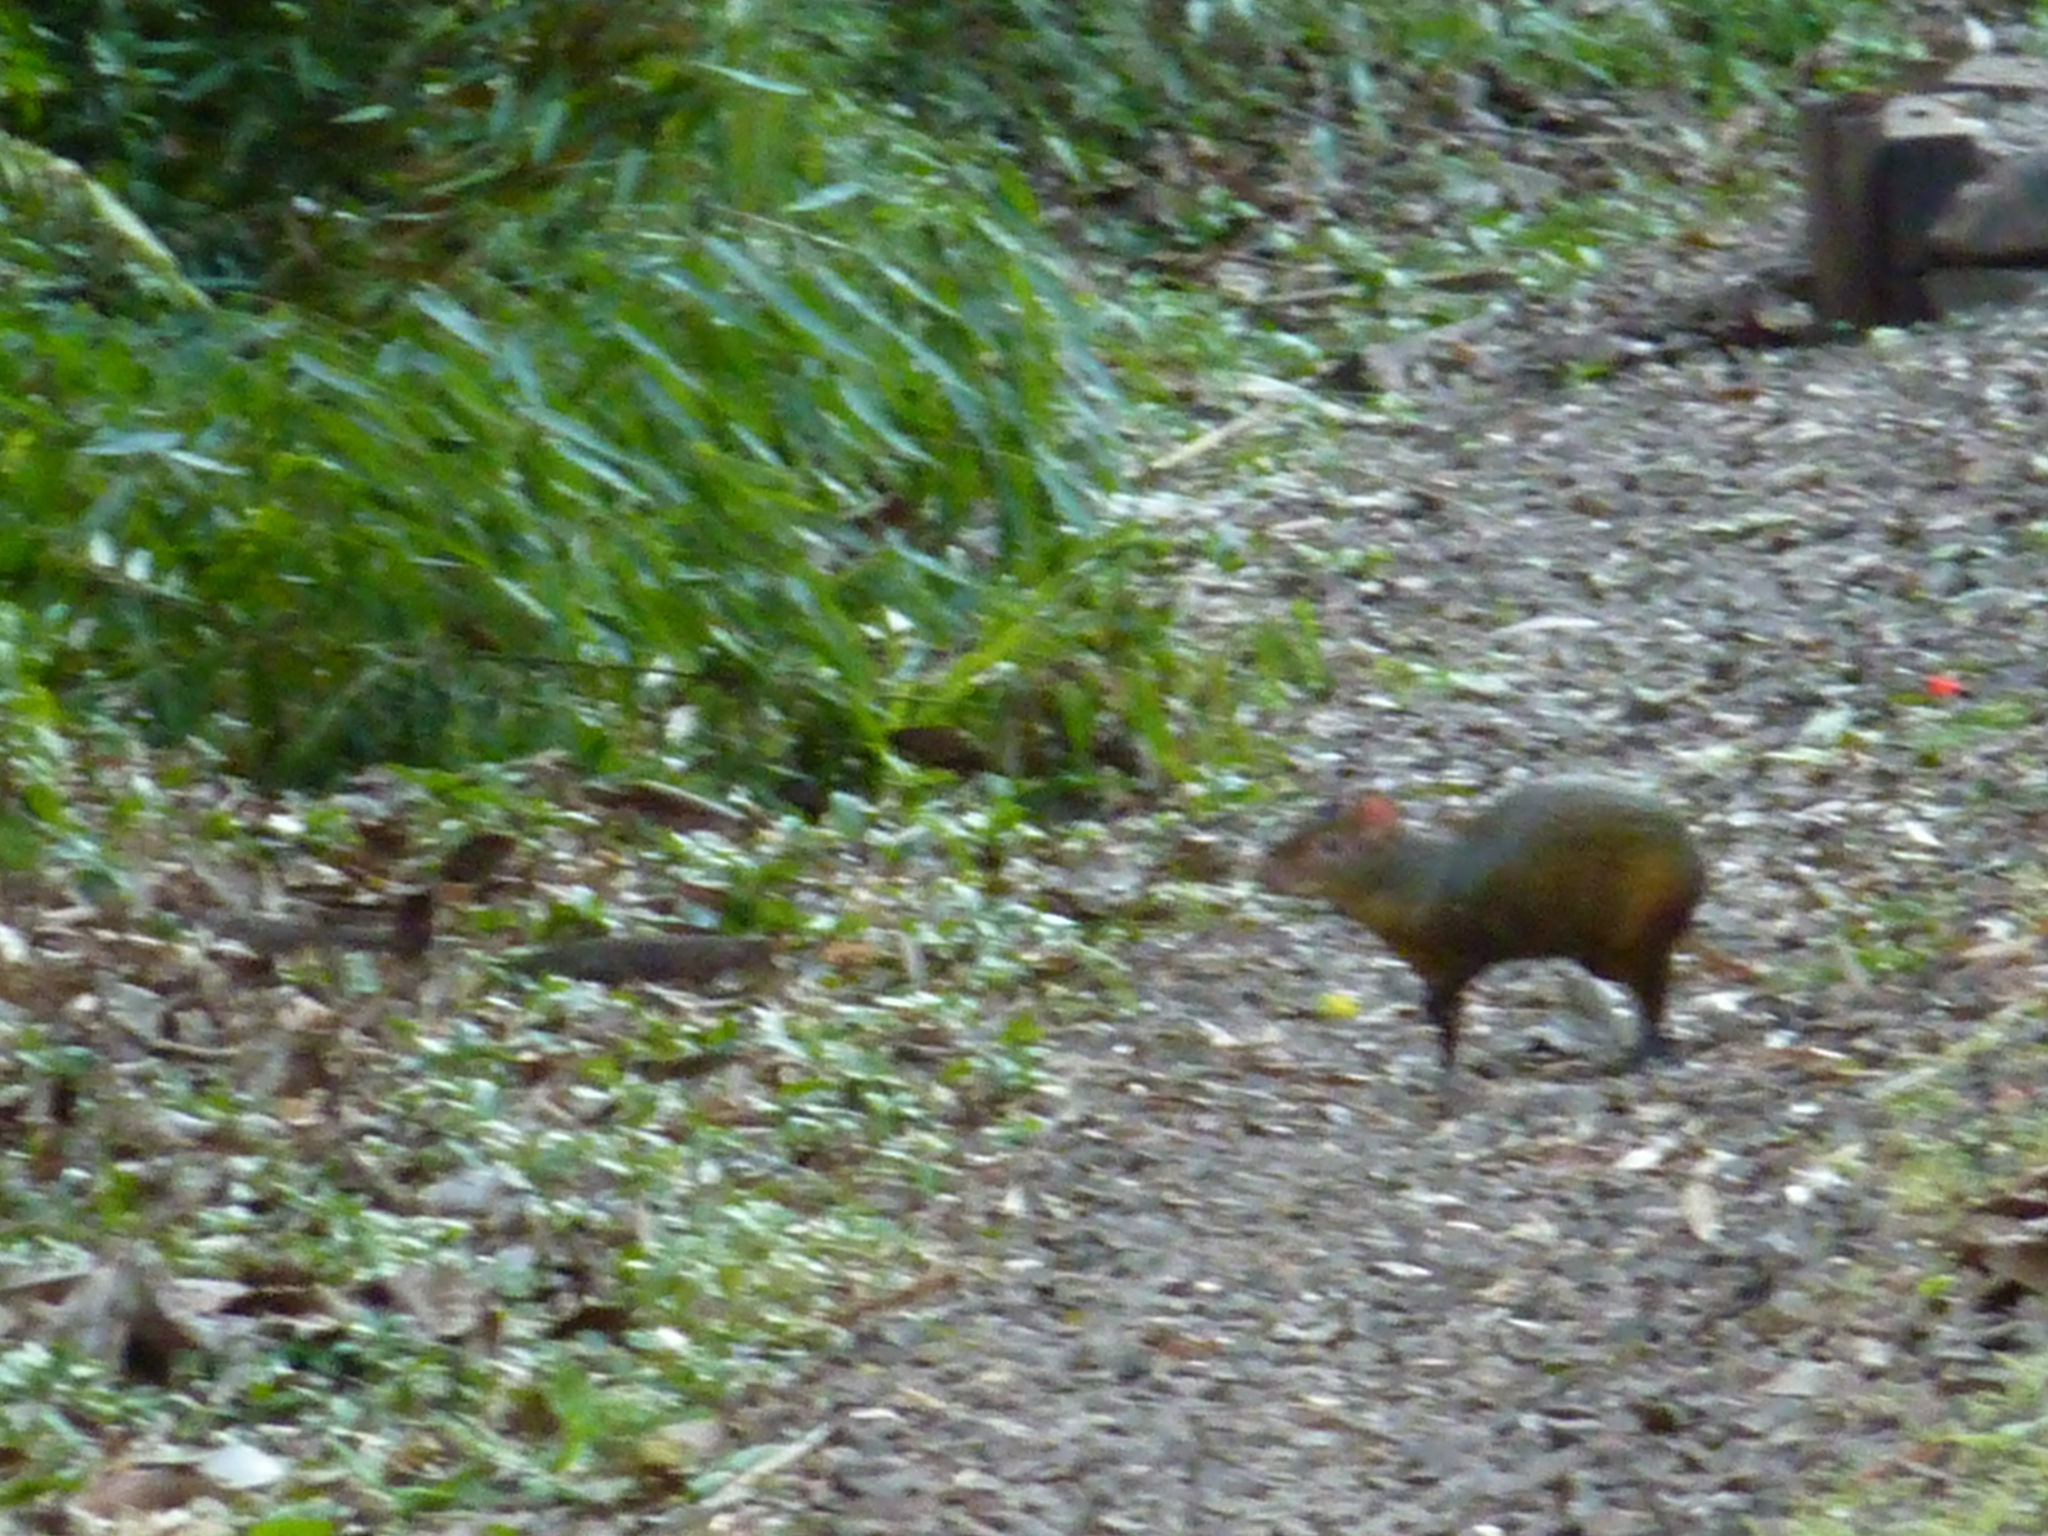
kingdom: Animalia
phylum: Chordata
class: Mammalia
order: Rodentia
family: Dasyproctidae
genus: Dasyprocta
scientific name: Dasyprocta azarae
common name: Azara's agouti
